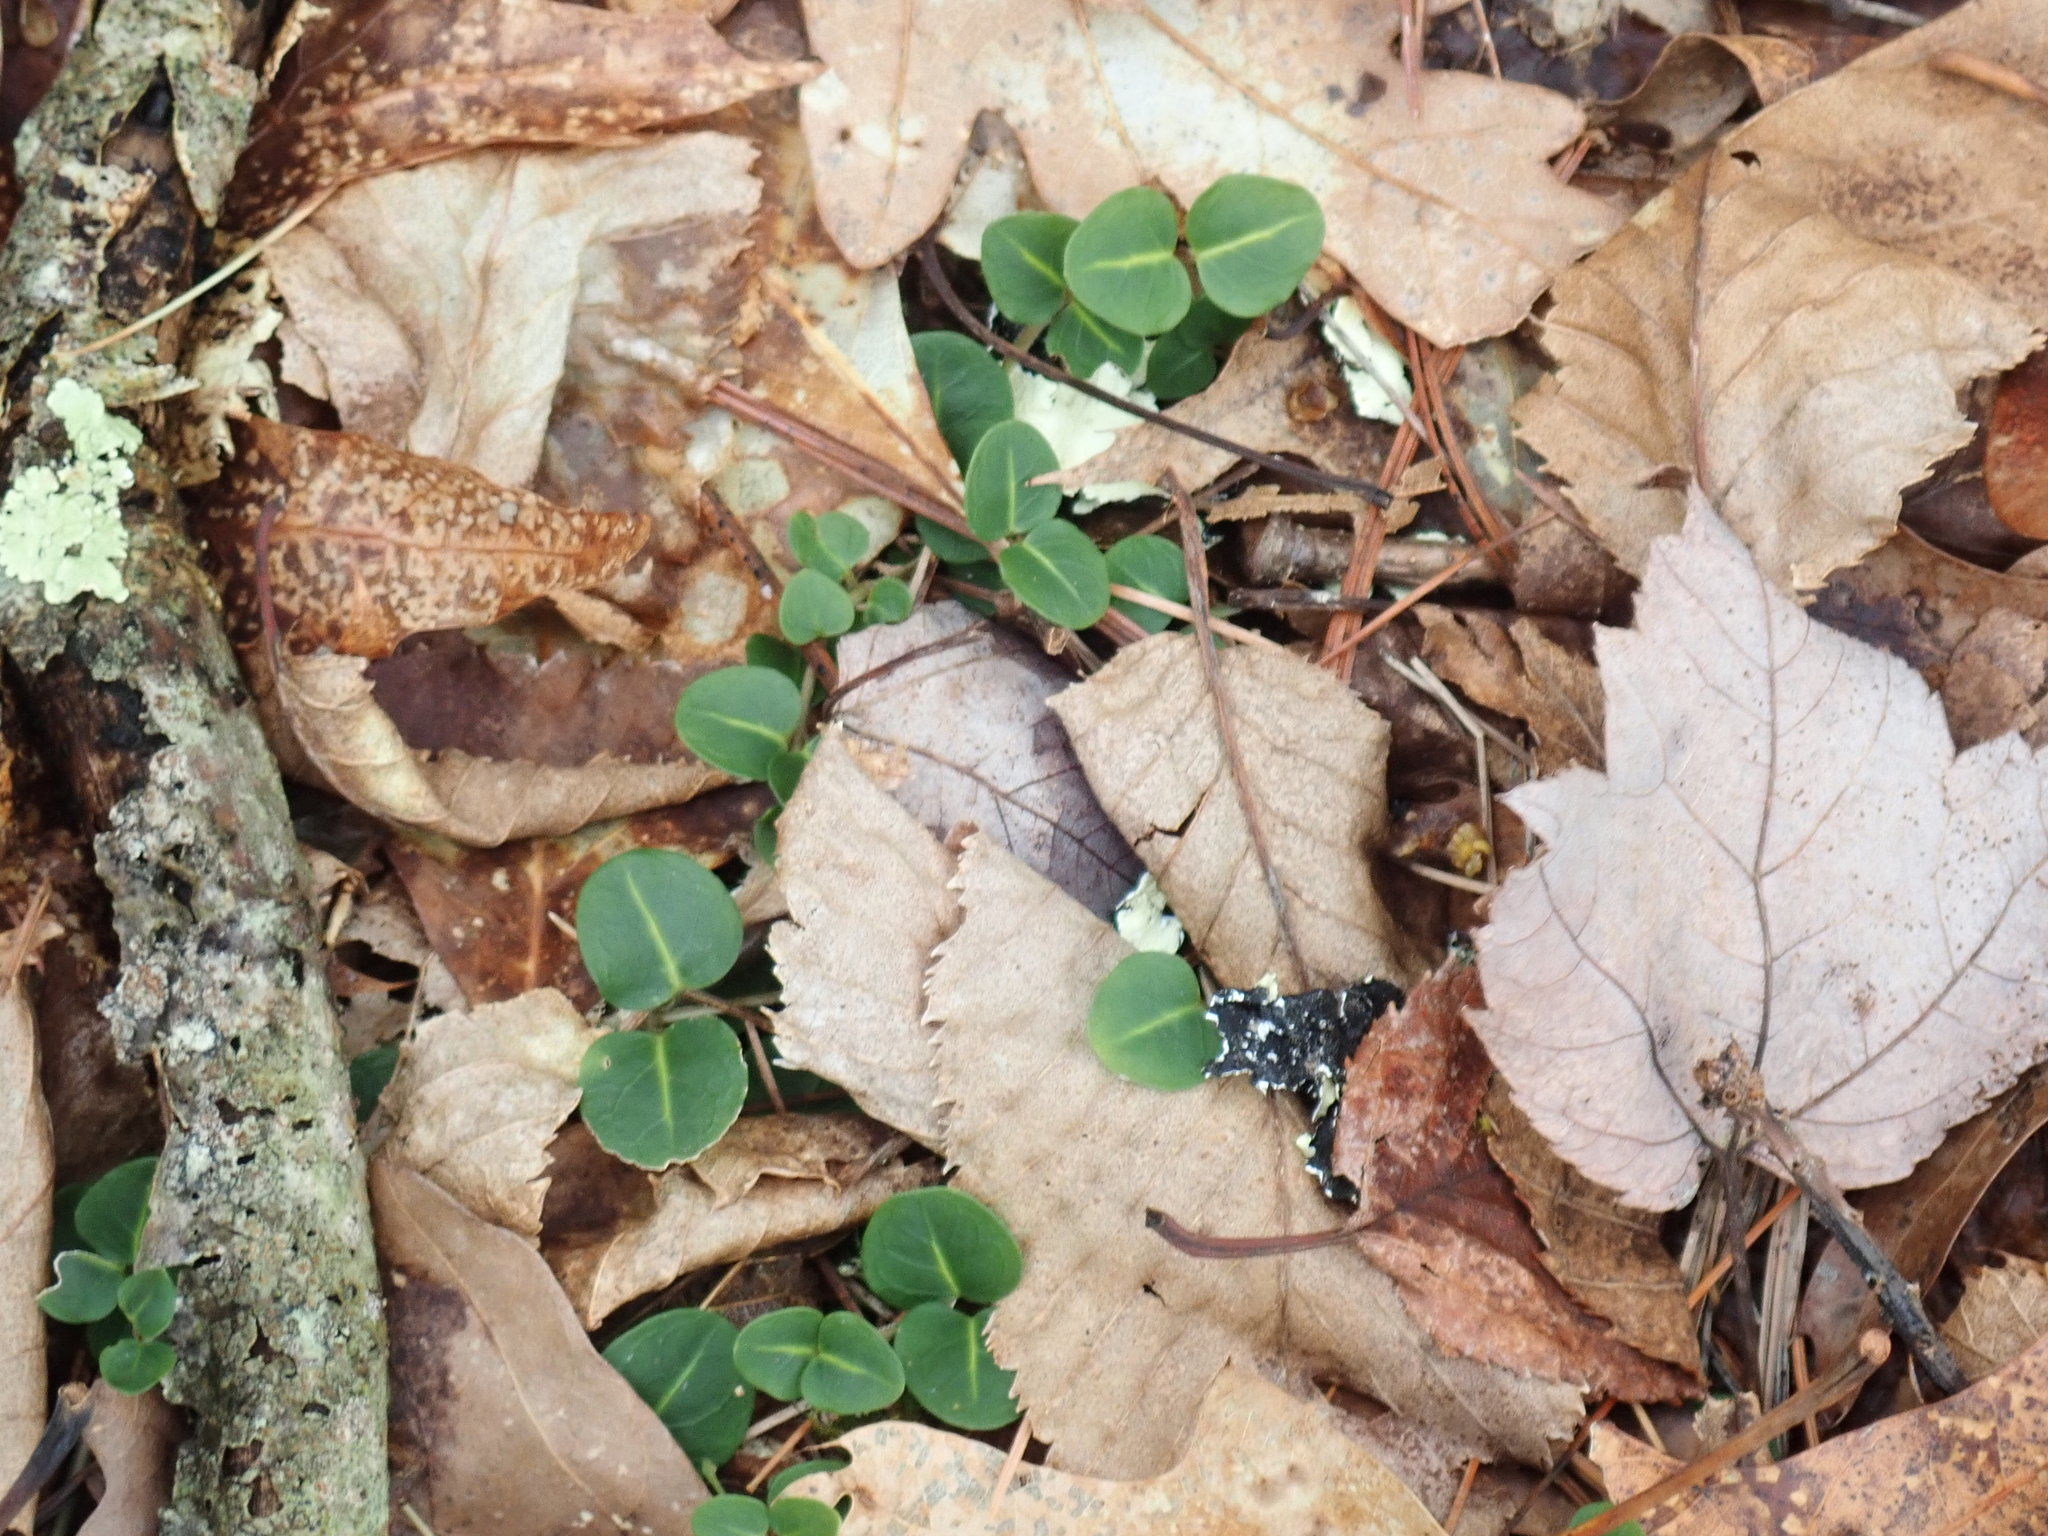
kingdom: Plantae
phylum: Tracheophyta
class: Magnoliopsida
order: Gentianales
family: Rubiaceae
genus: Mitchella
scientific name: Mitchella repens
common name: Partridge-berry
